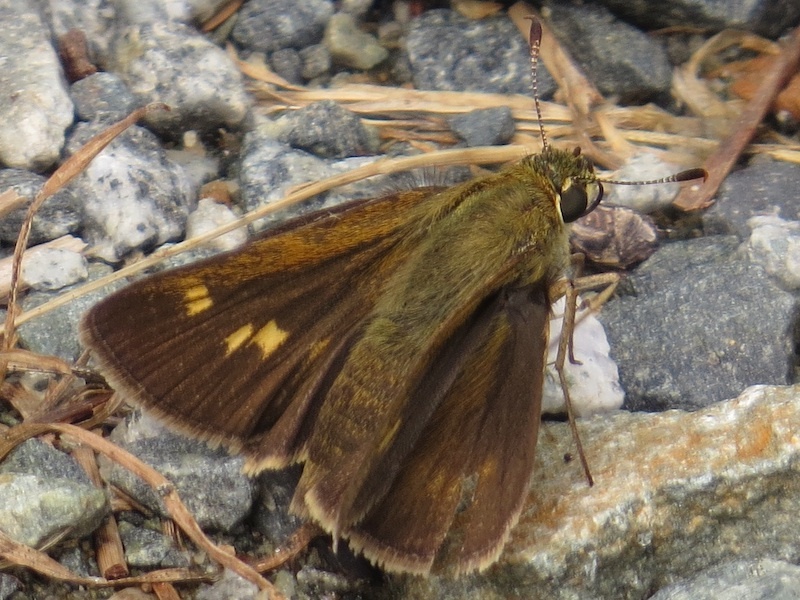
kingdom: Animalia
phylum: Arthropoda
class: Insecta
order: Lepidoptera
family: Hesperiidae
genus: Polites
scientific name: Polites vibex
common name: Whirlabout
